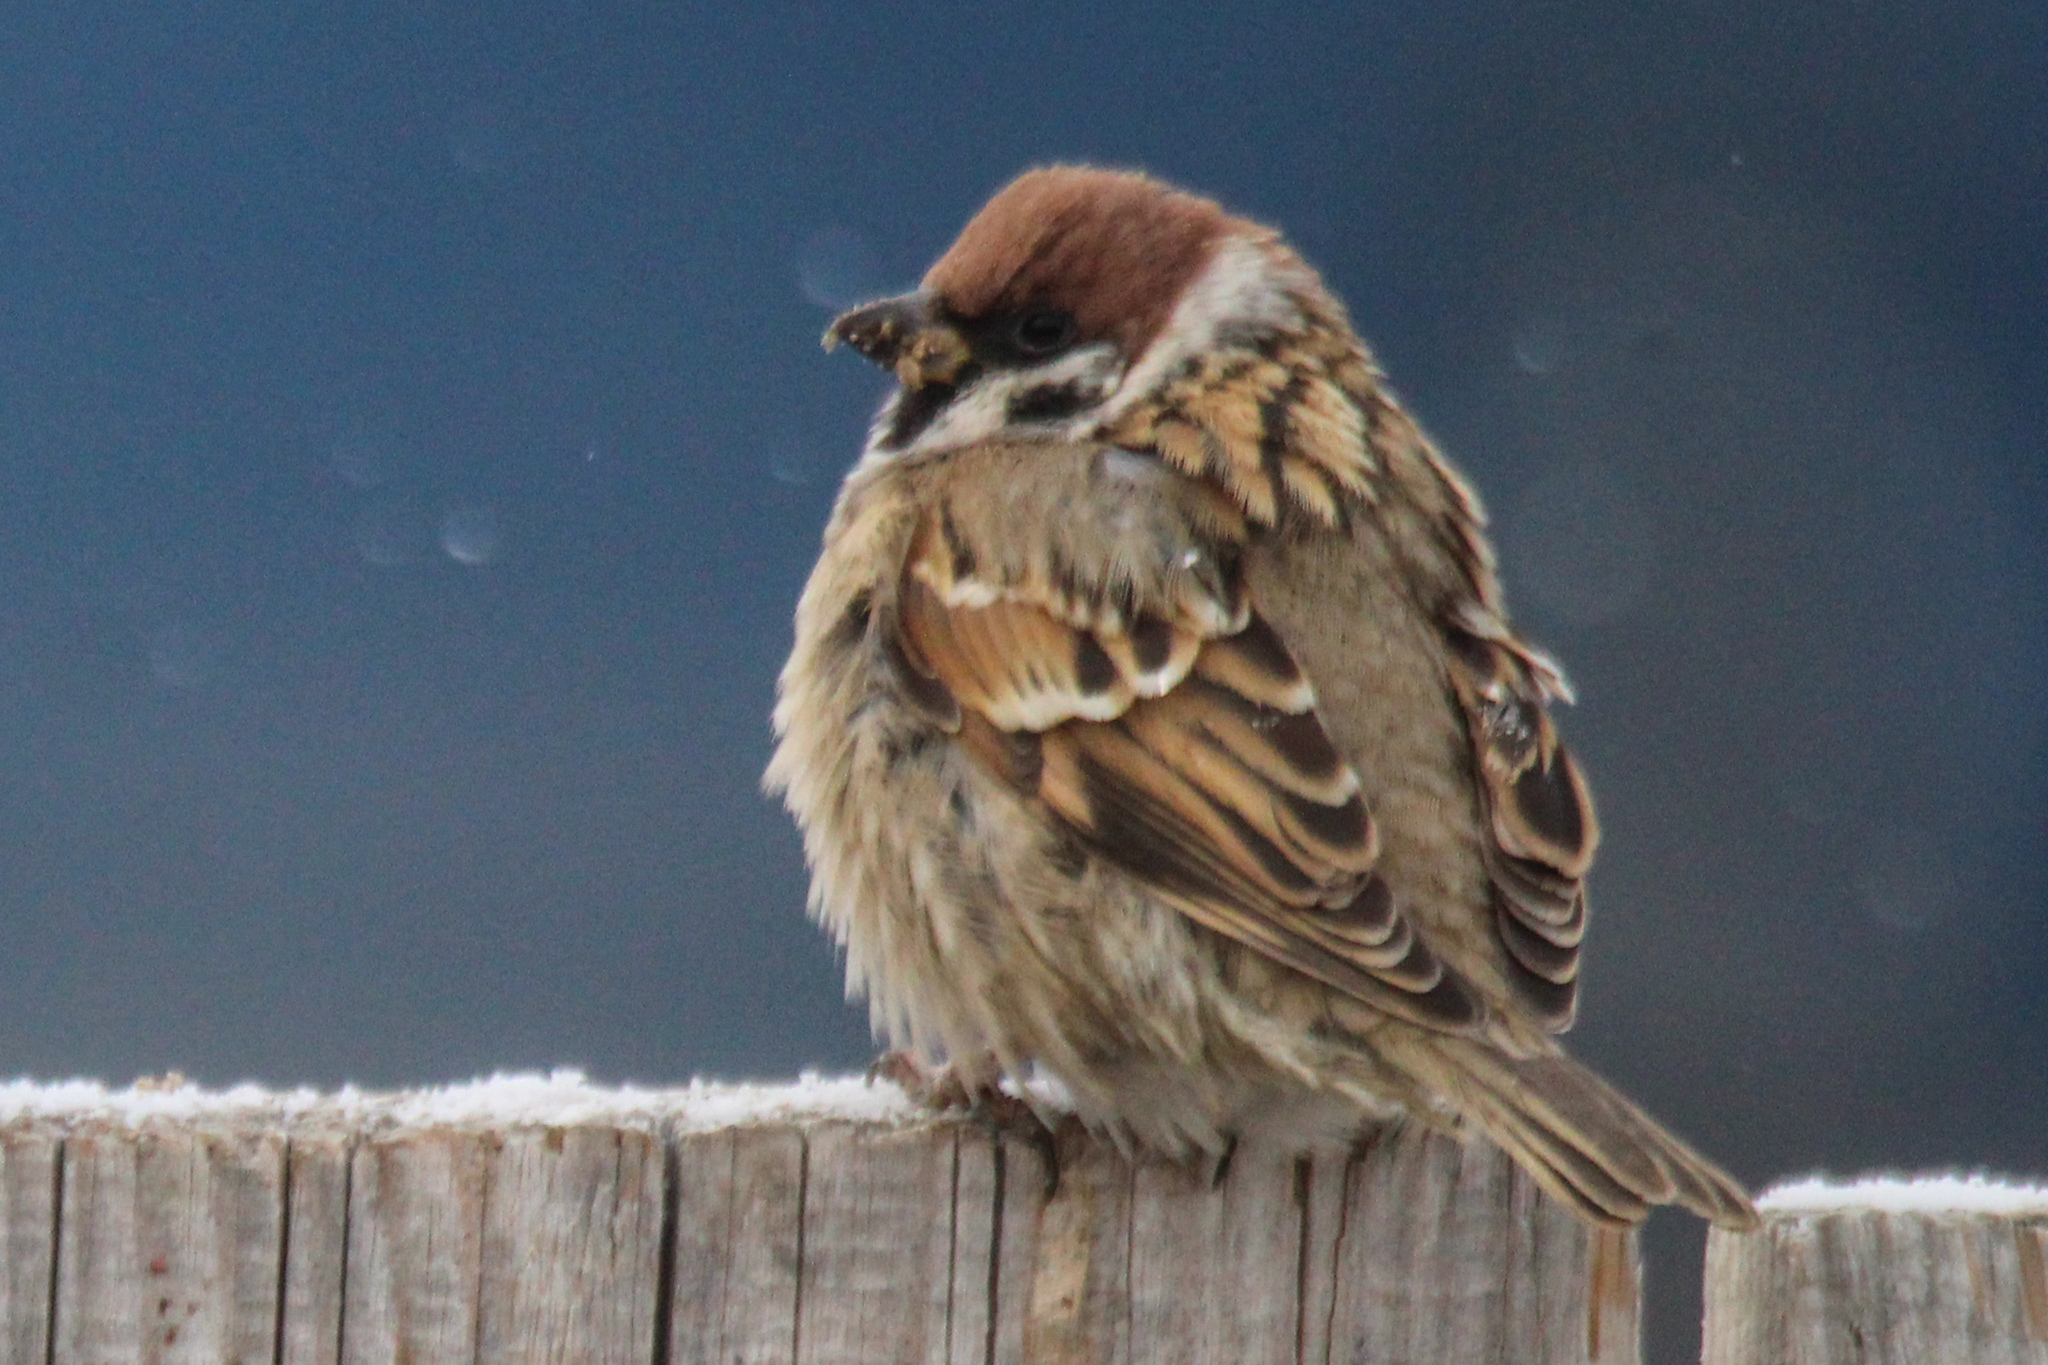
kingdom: Animalia
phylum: Chordata
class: Aves
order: Passeriformes
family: Passeridae
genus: Passer
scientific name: Passer montanus
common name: Eurasian tree sparrow
